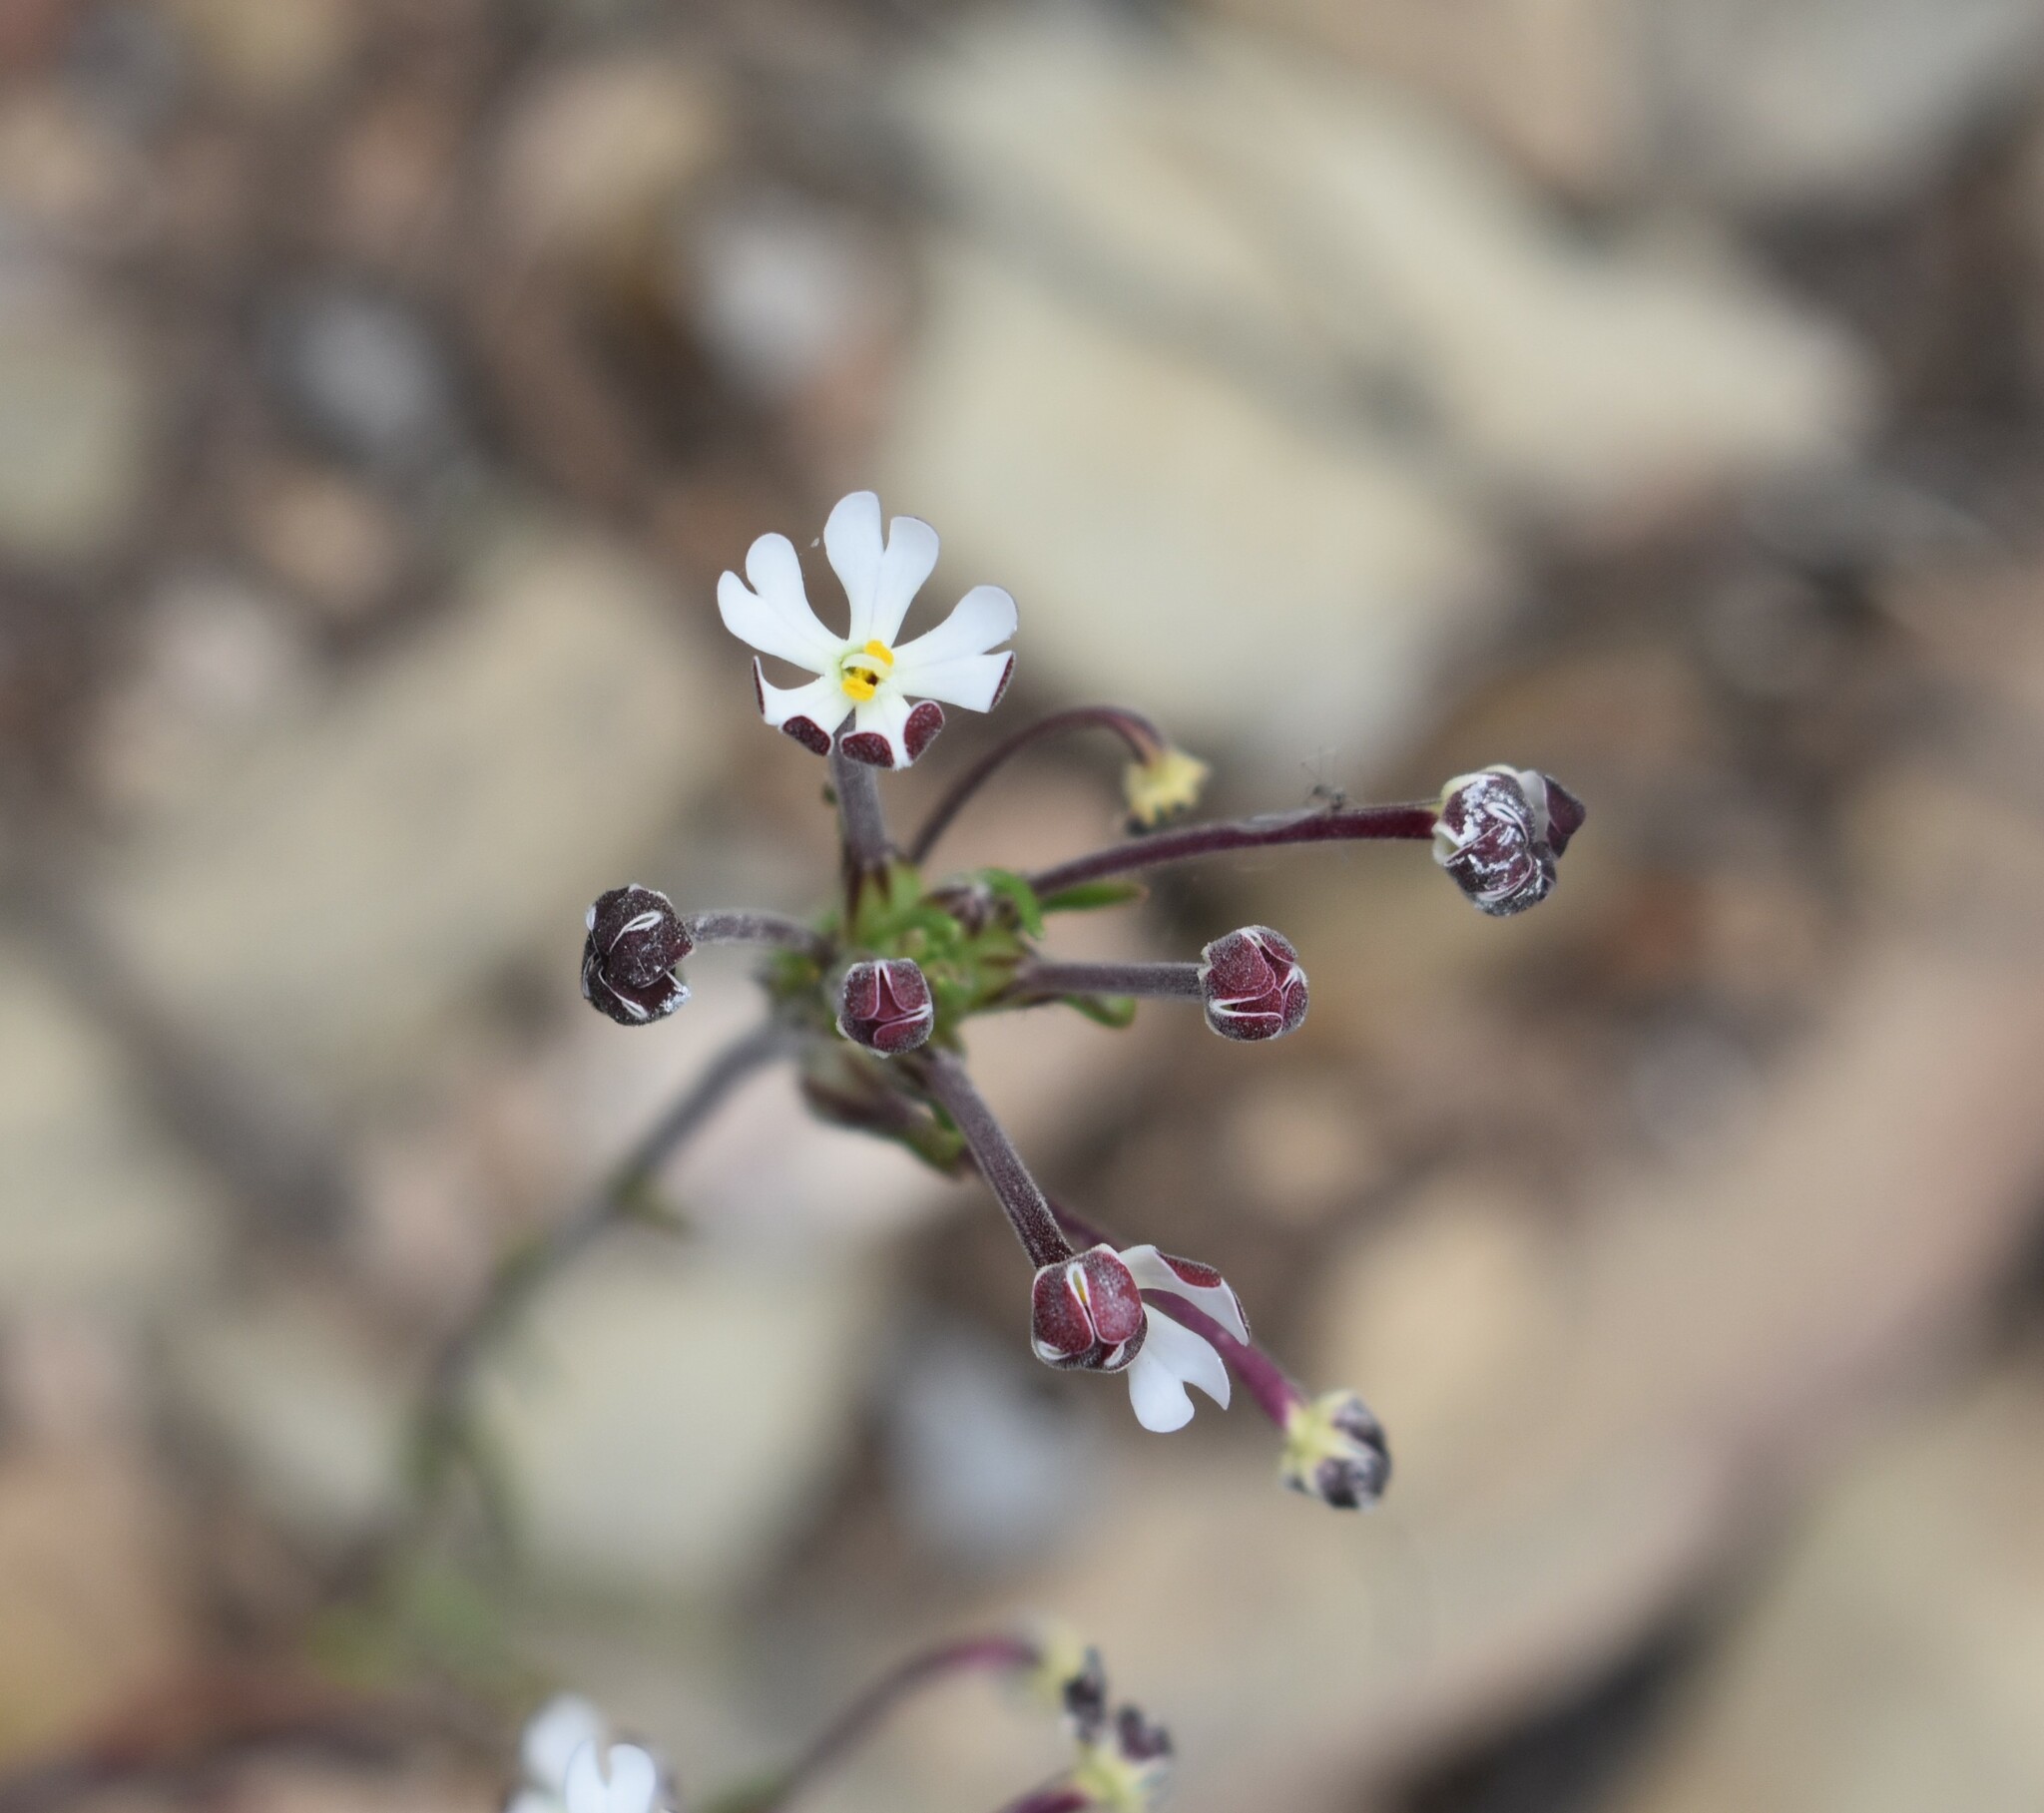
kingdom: Plantae
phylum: Tracheophyta
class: Magnoliopsida
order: Lamiales
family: Scrophulariaceae
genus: Zaluzianskya
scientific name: Zaluzianskya capensis
